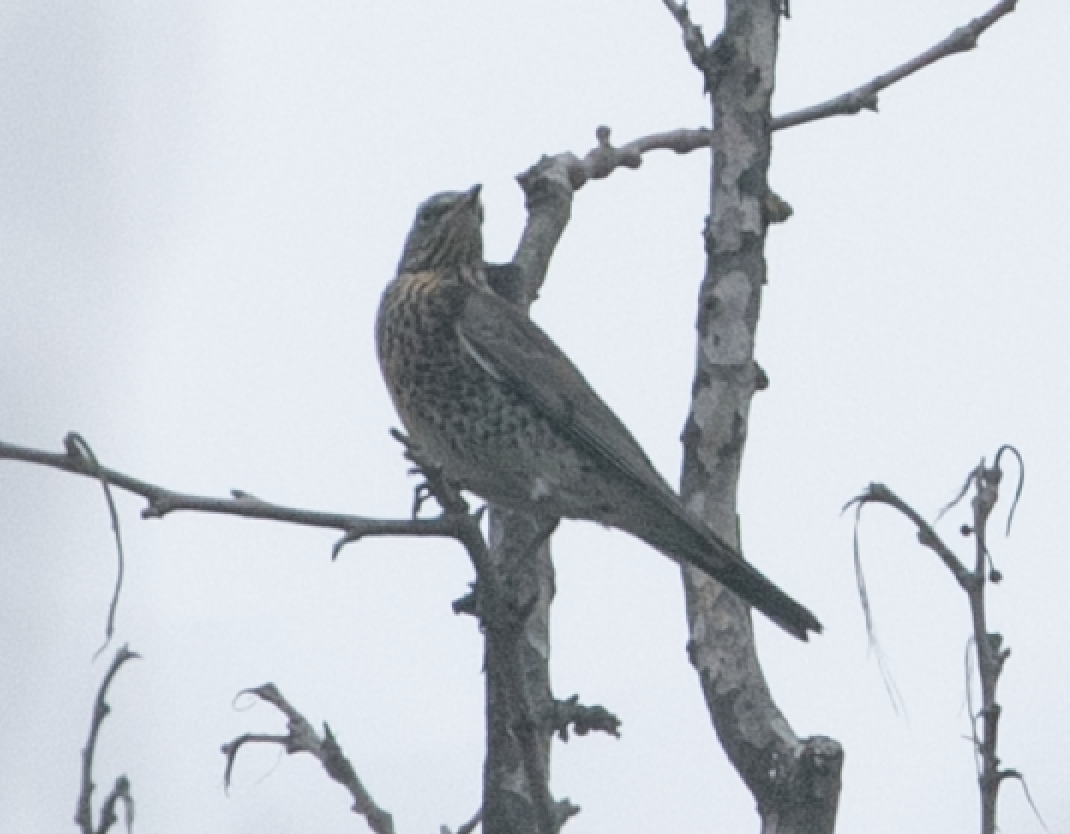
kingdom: Animalia
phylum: Chordata
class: Aves
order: Passeriformes
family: Turdidae
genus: Turdus
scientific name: Turdus pilaris
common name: Fieldfare
